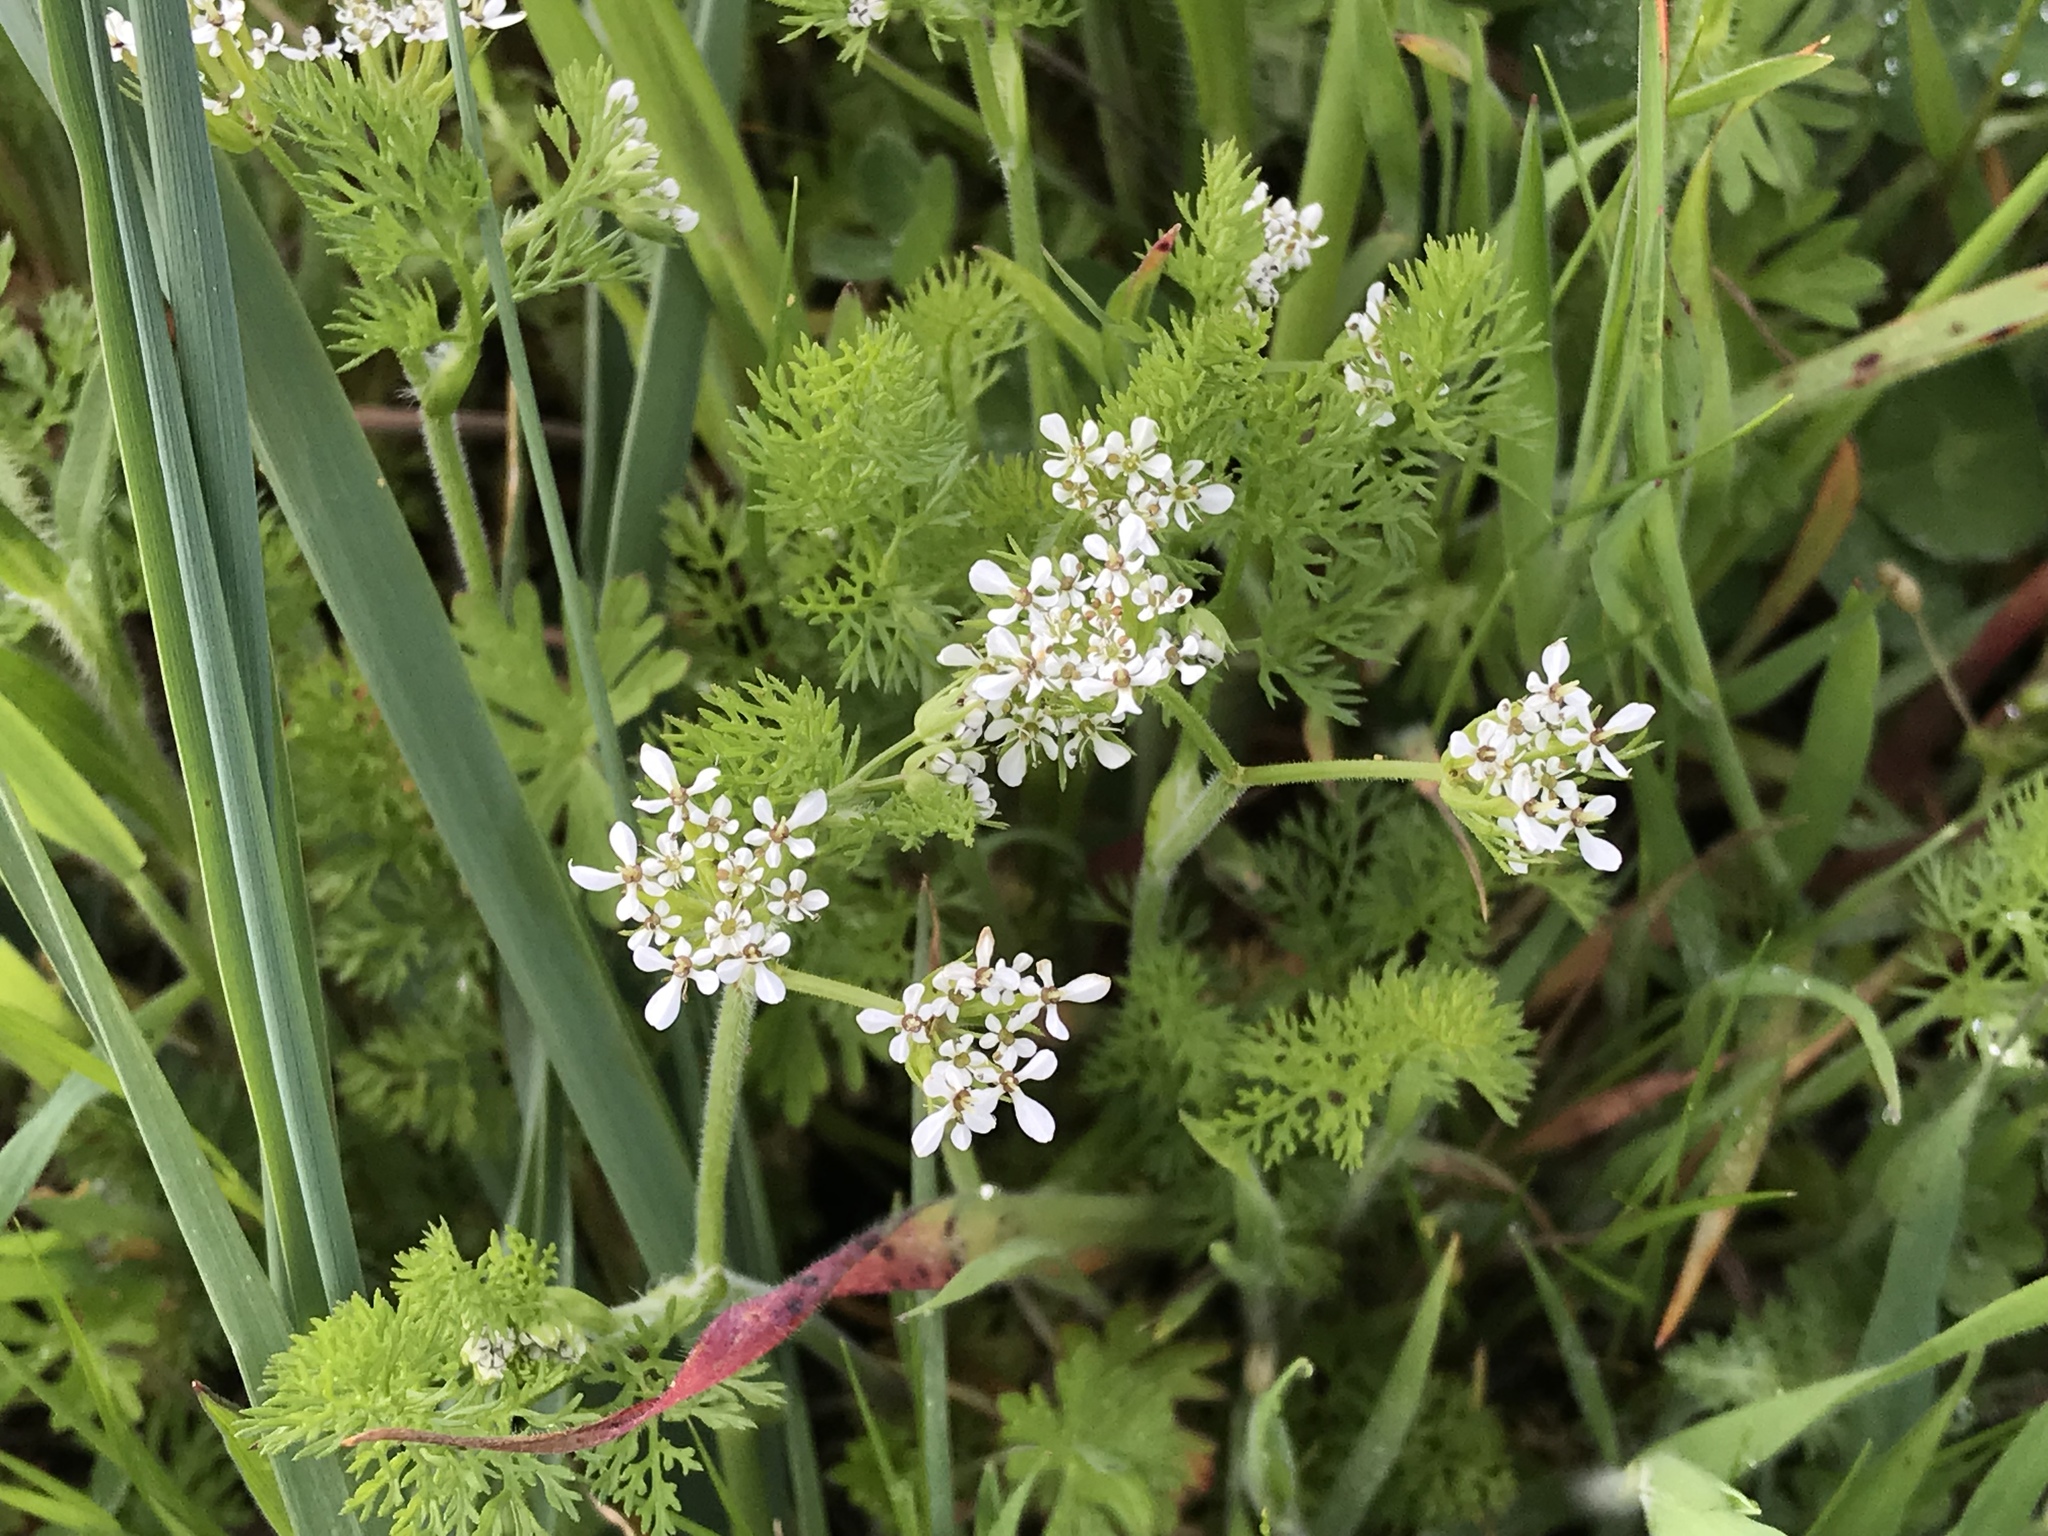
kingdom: Plantae
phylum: Tracheophyta
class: Magnoliopsida
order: Apiales
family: Apiaceae
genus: Scandix
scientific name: Scandix pecten-veneris
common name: Shepherd's-needle
